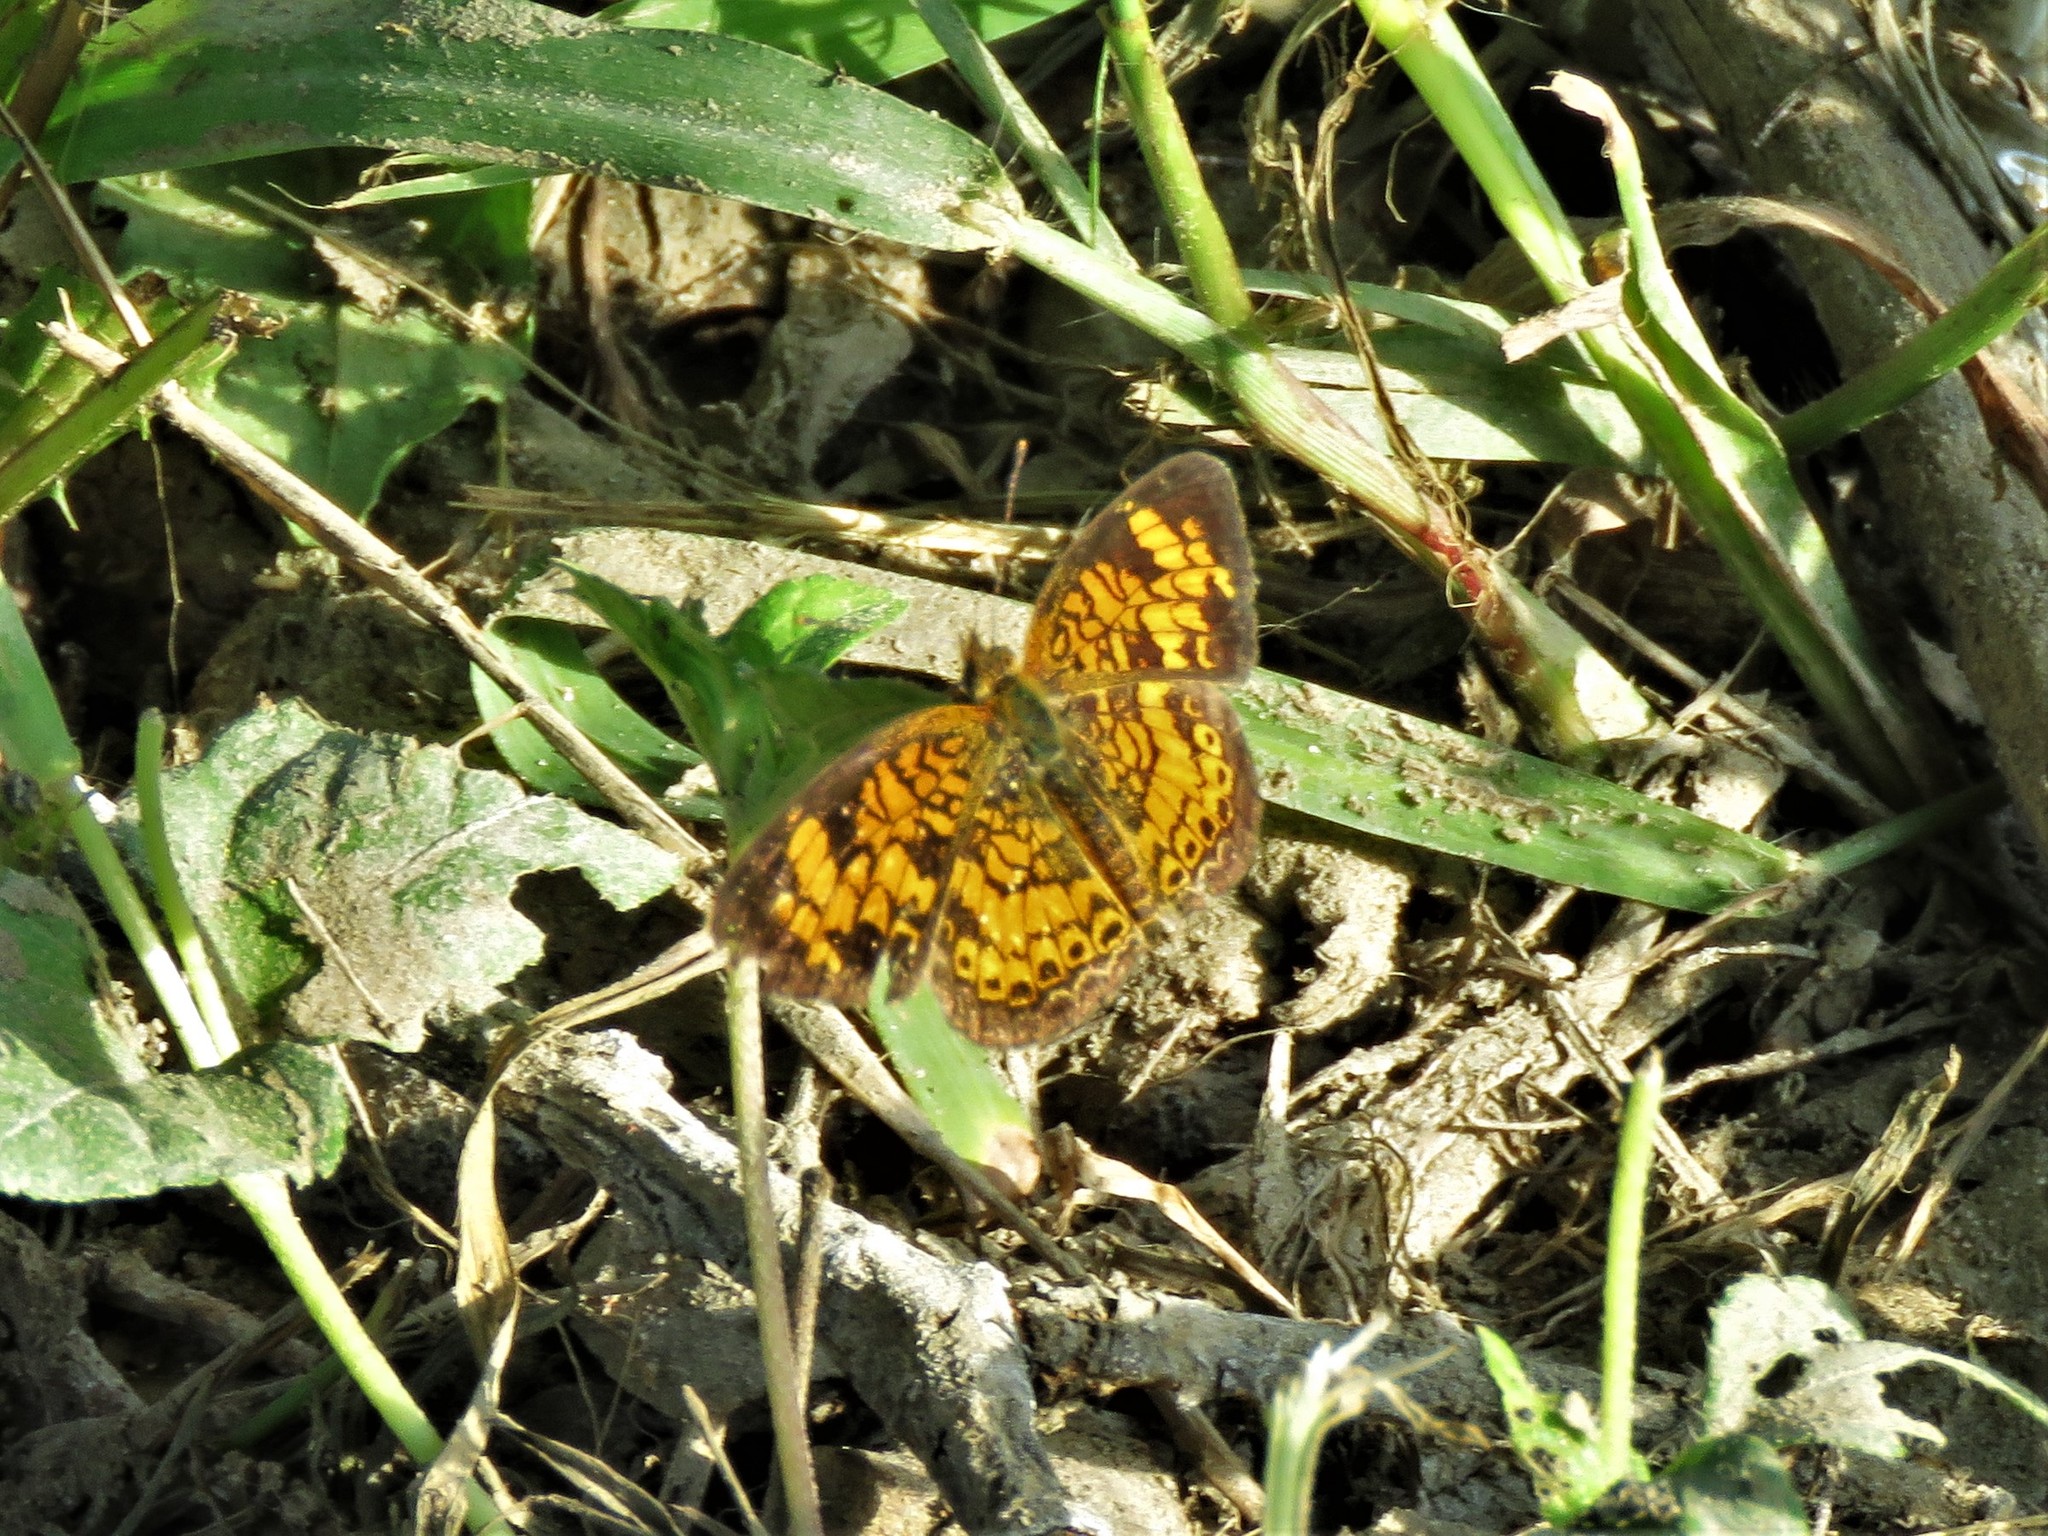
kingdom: Animalia
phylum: Arthropoda
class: Insecta
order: Lepidoptera
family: Nymphalidae
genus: Phyciodes
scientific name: Phyciodes tharos
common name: Pearl crescent
